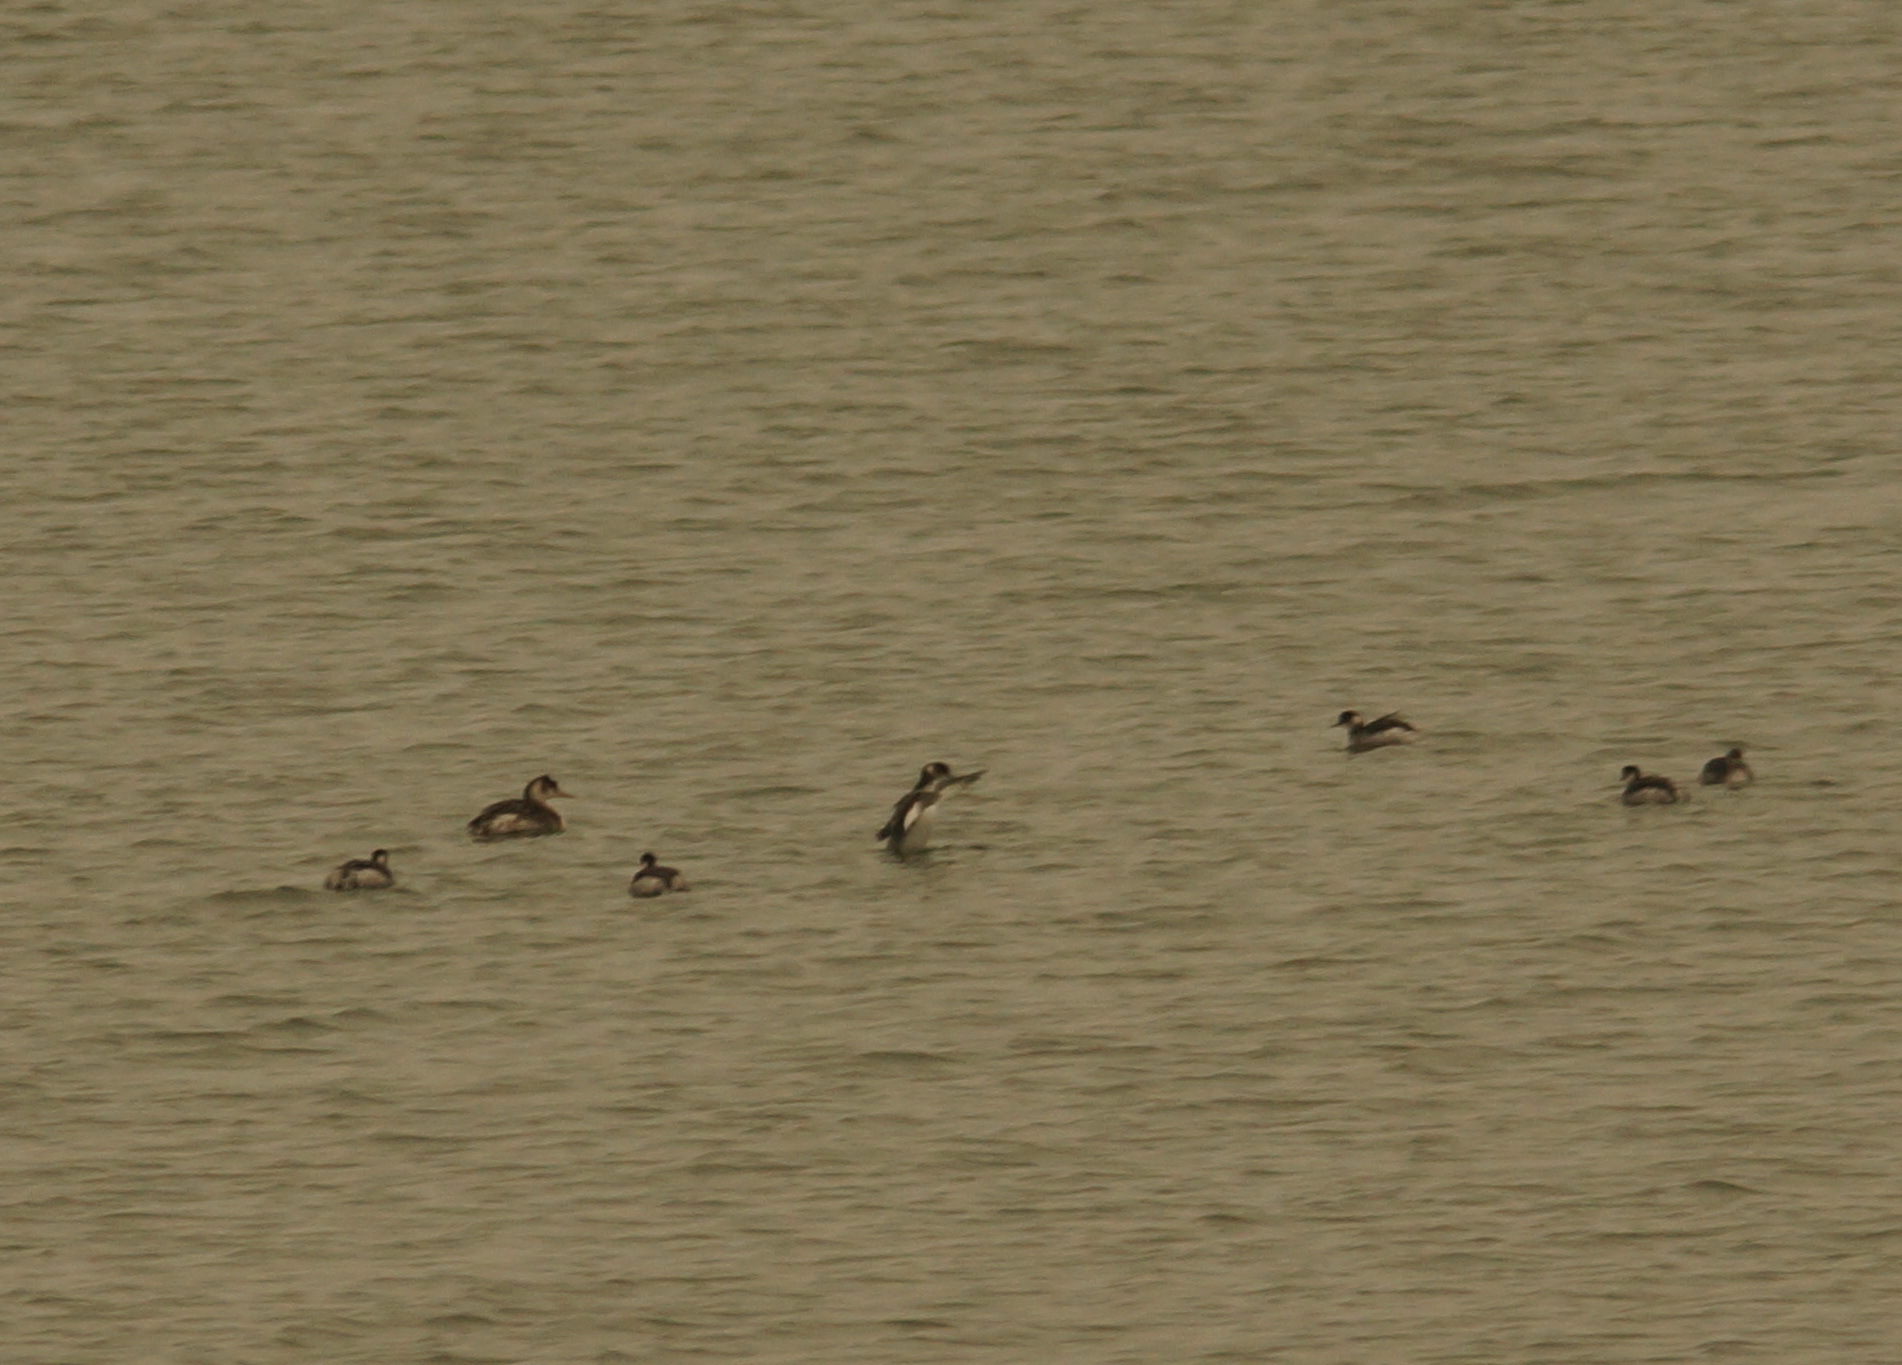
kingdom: Animalia
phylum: Chordata
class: Aves
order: Podicipediformes
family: Podicipedidae
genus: Podiceps
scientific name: Podiceps nigricollis
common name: Black-necked grebe
